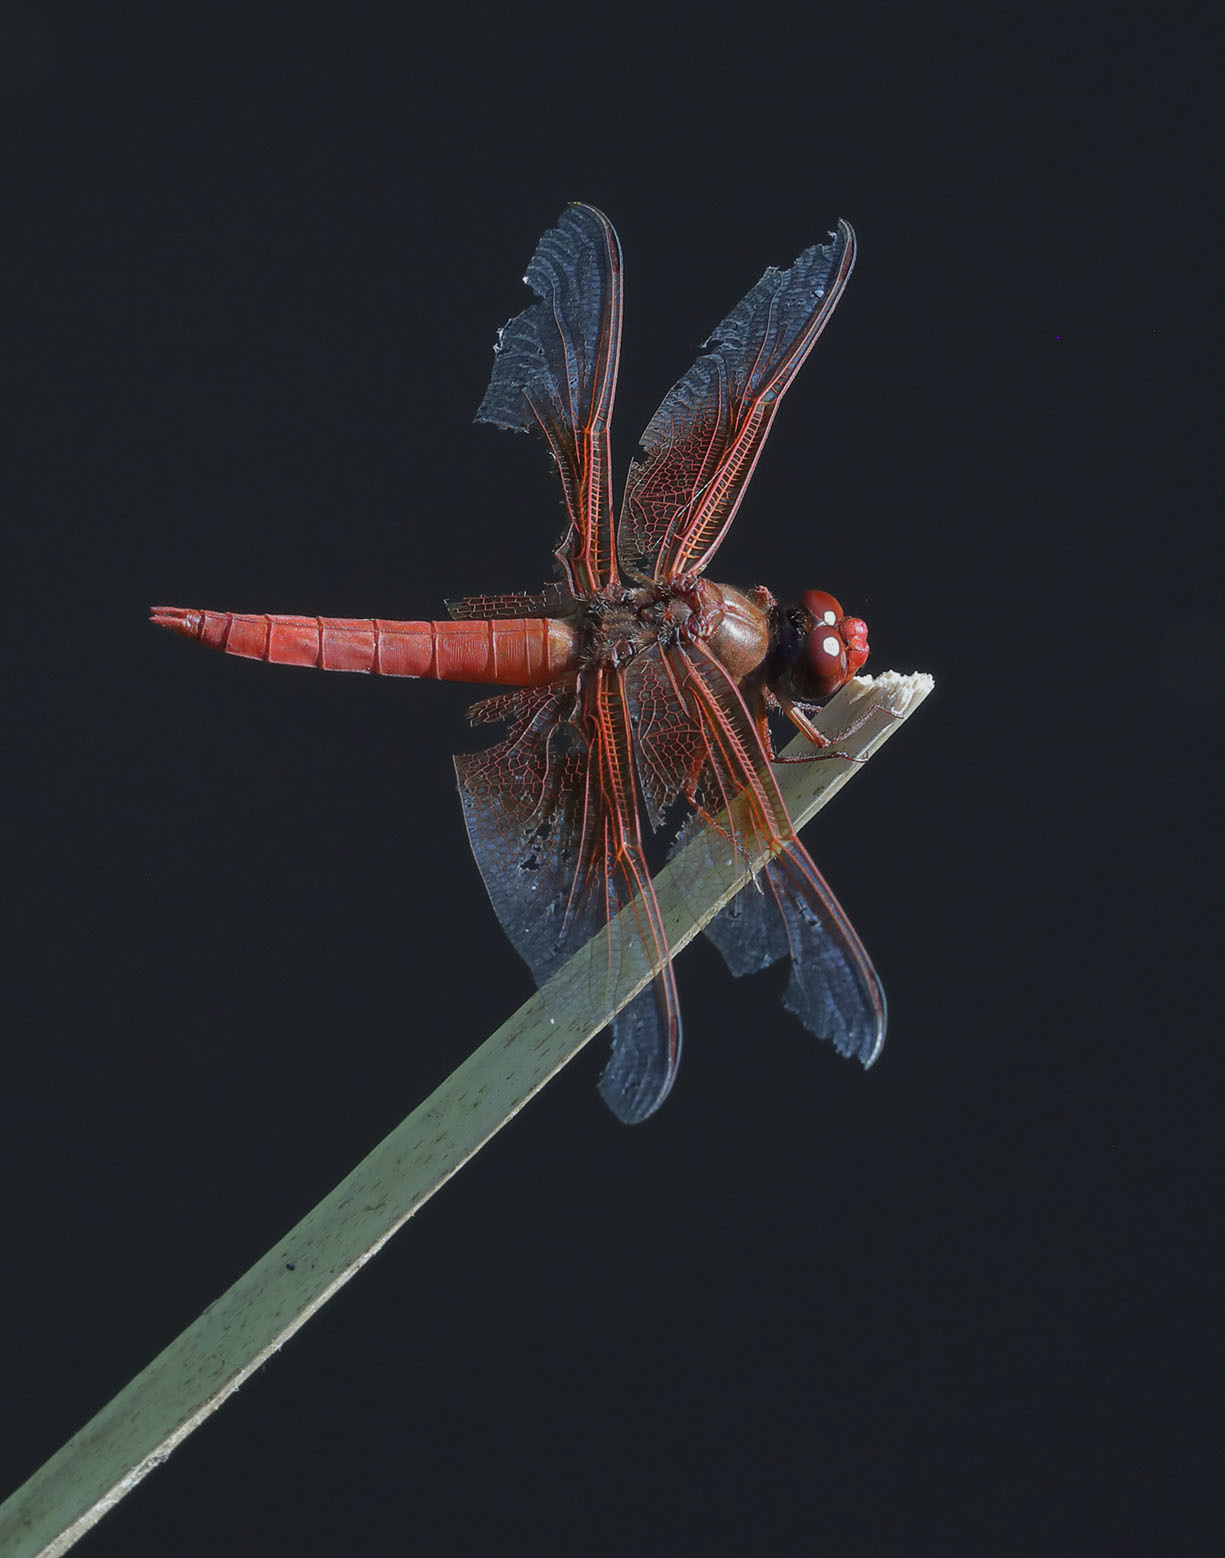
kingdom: Animalia
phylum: Arthropoda
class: Insecta
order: Odonata
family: Libellulidae
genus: Libellula
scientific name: Libellula saturata
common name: Flame skimmer
